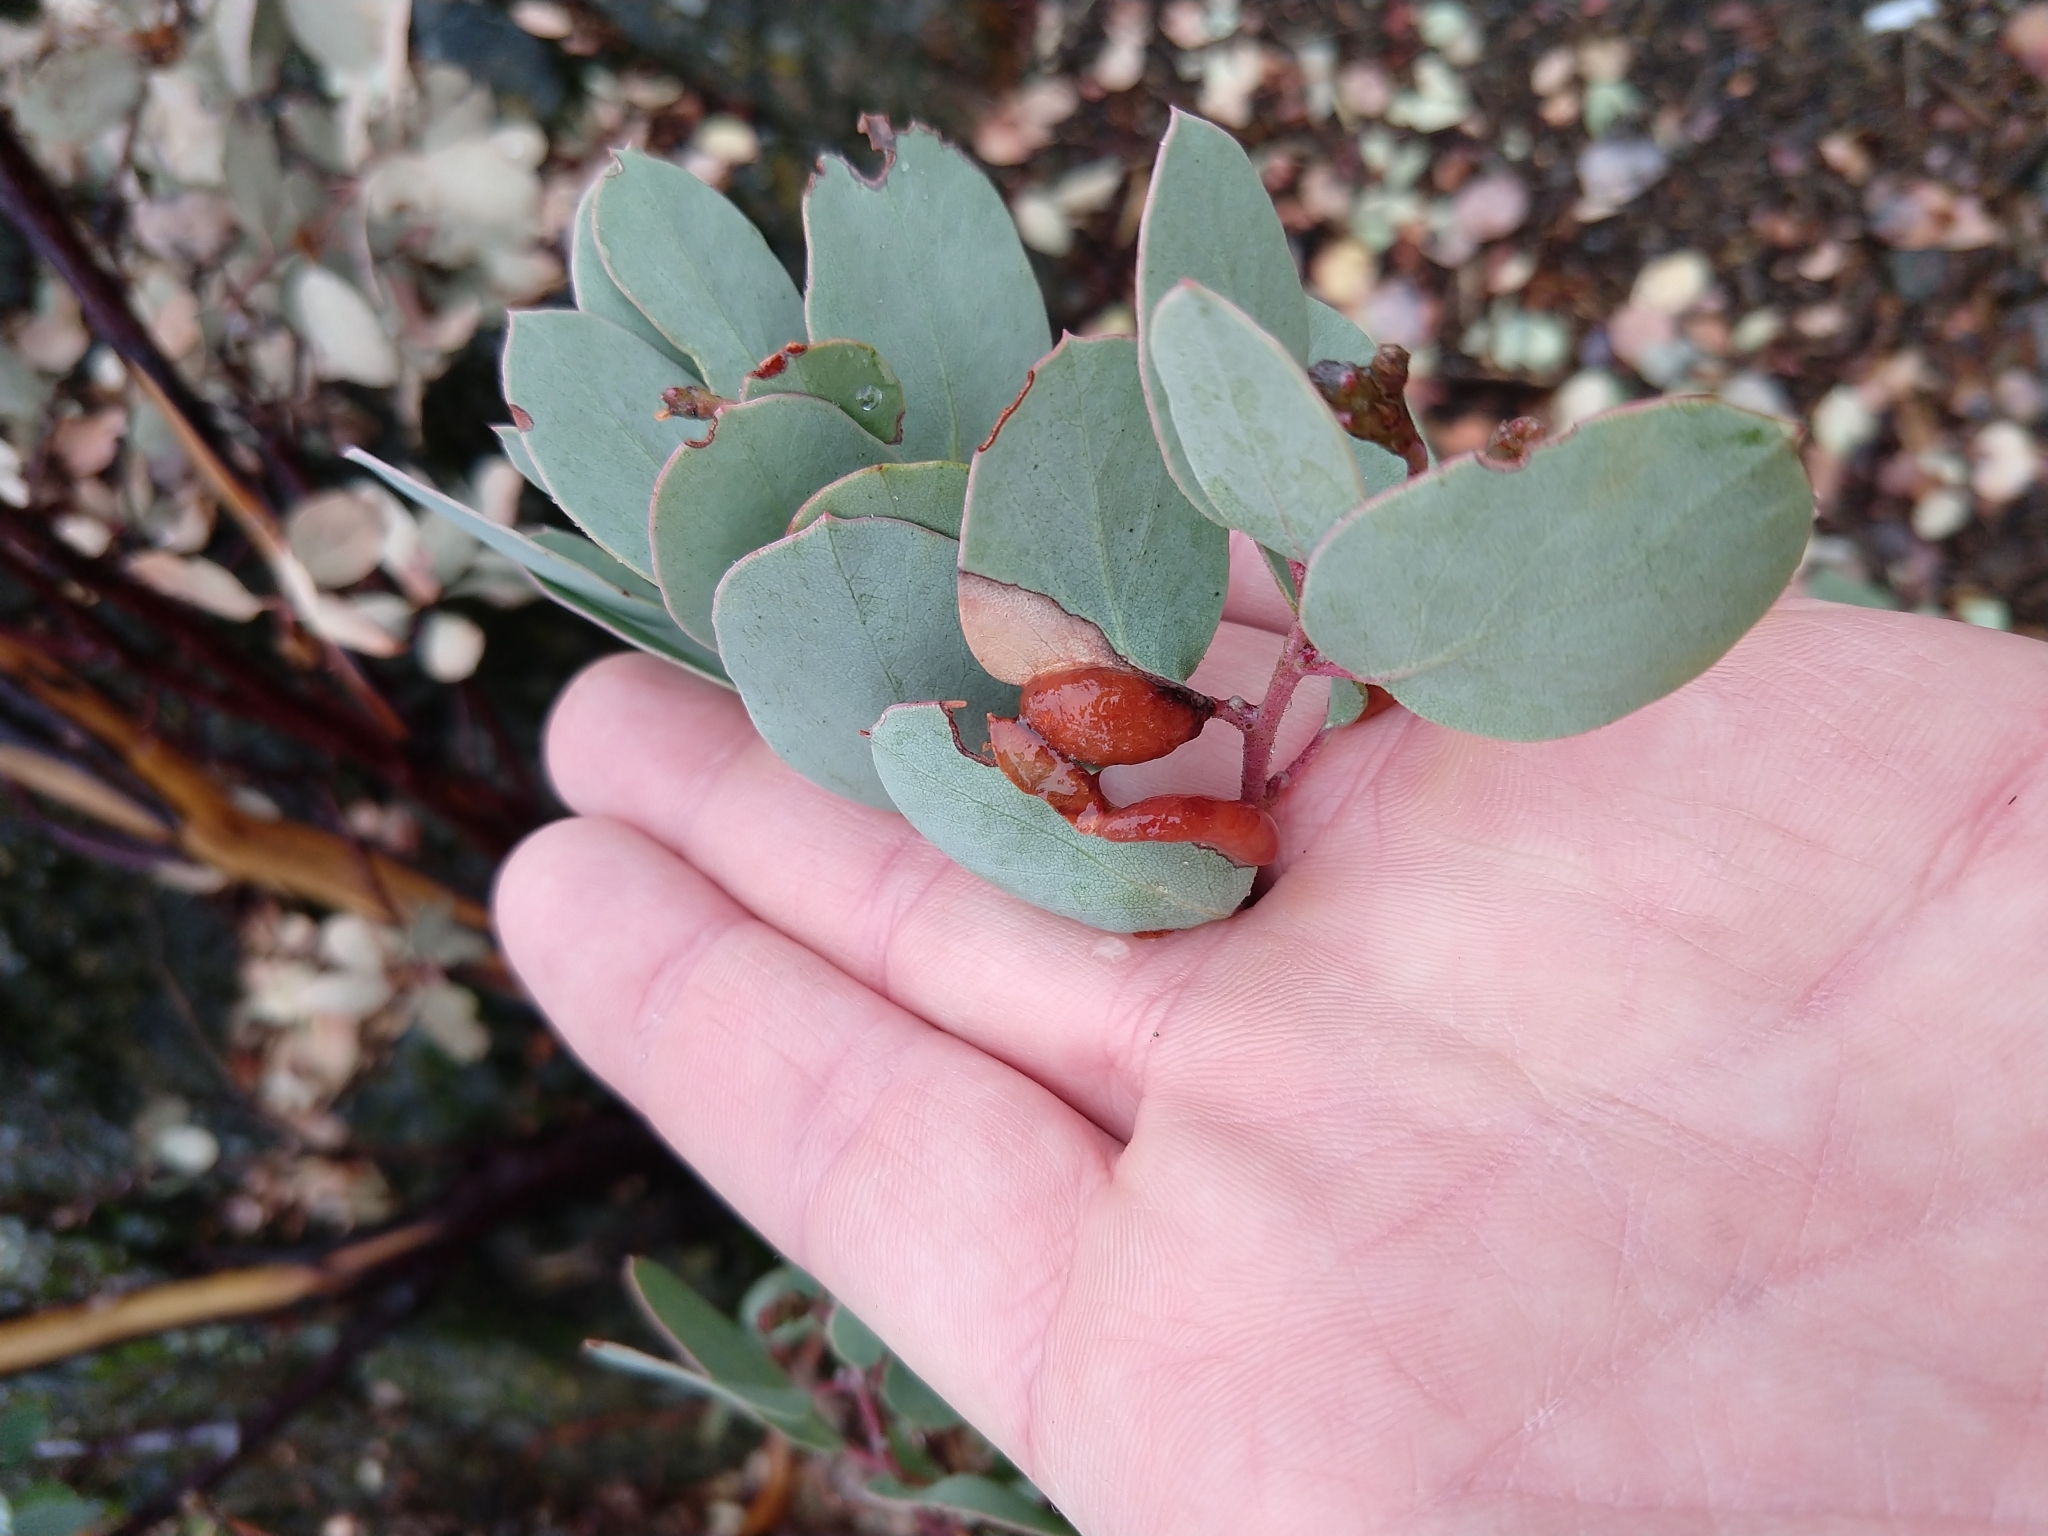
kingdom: Animalia
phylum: Arthropoda
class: Insecta
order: Hemiptera
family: Aphididae
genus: Tamalia
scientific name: Tamalia coweni
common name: Manzanita leafgall aphid
